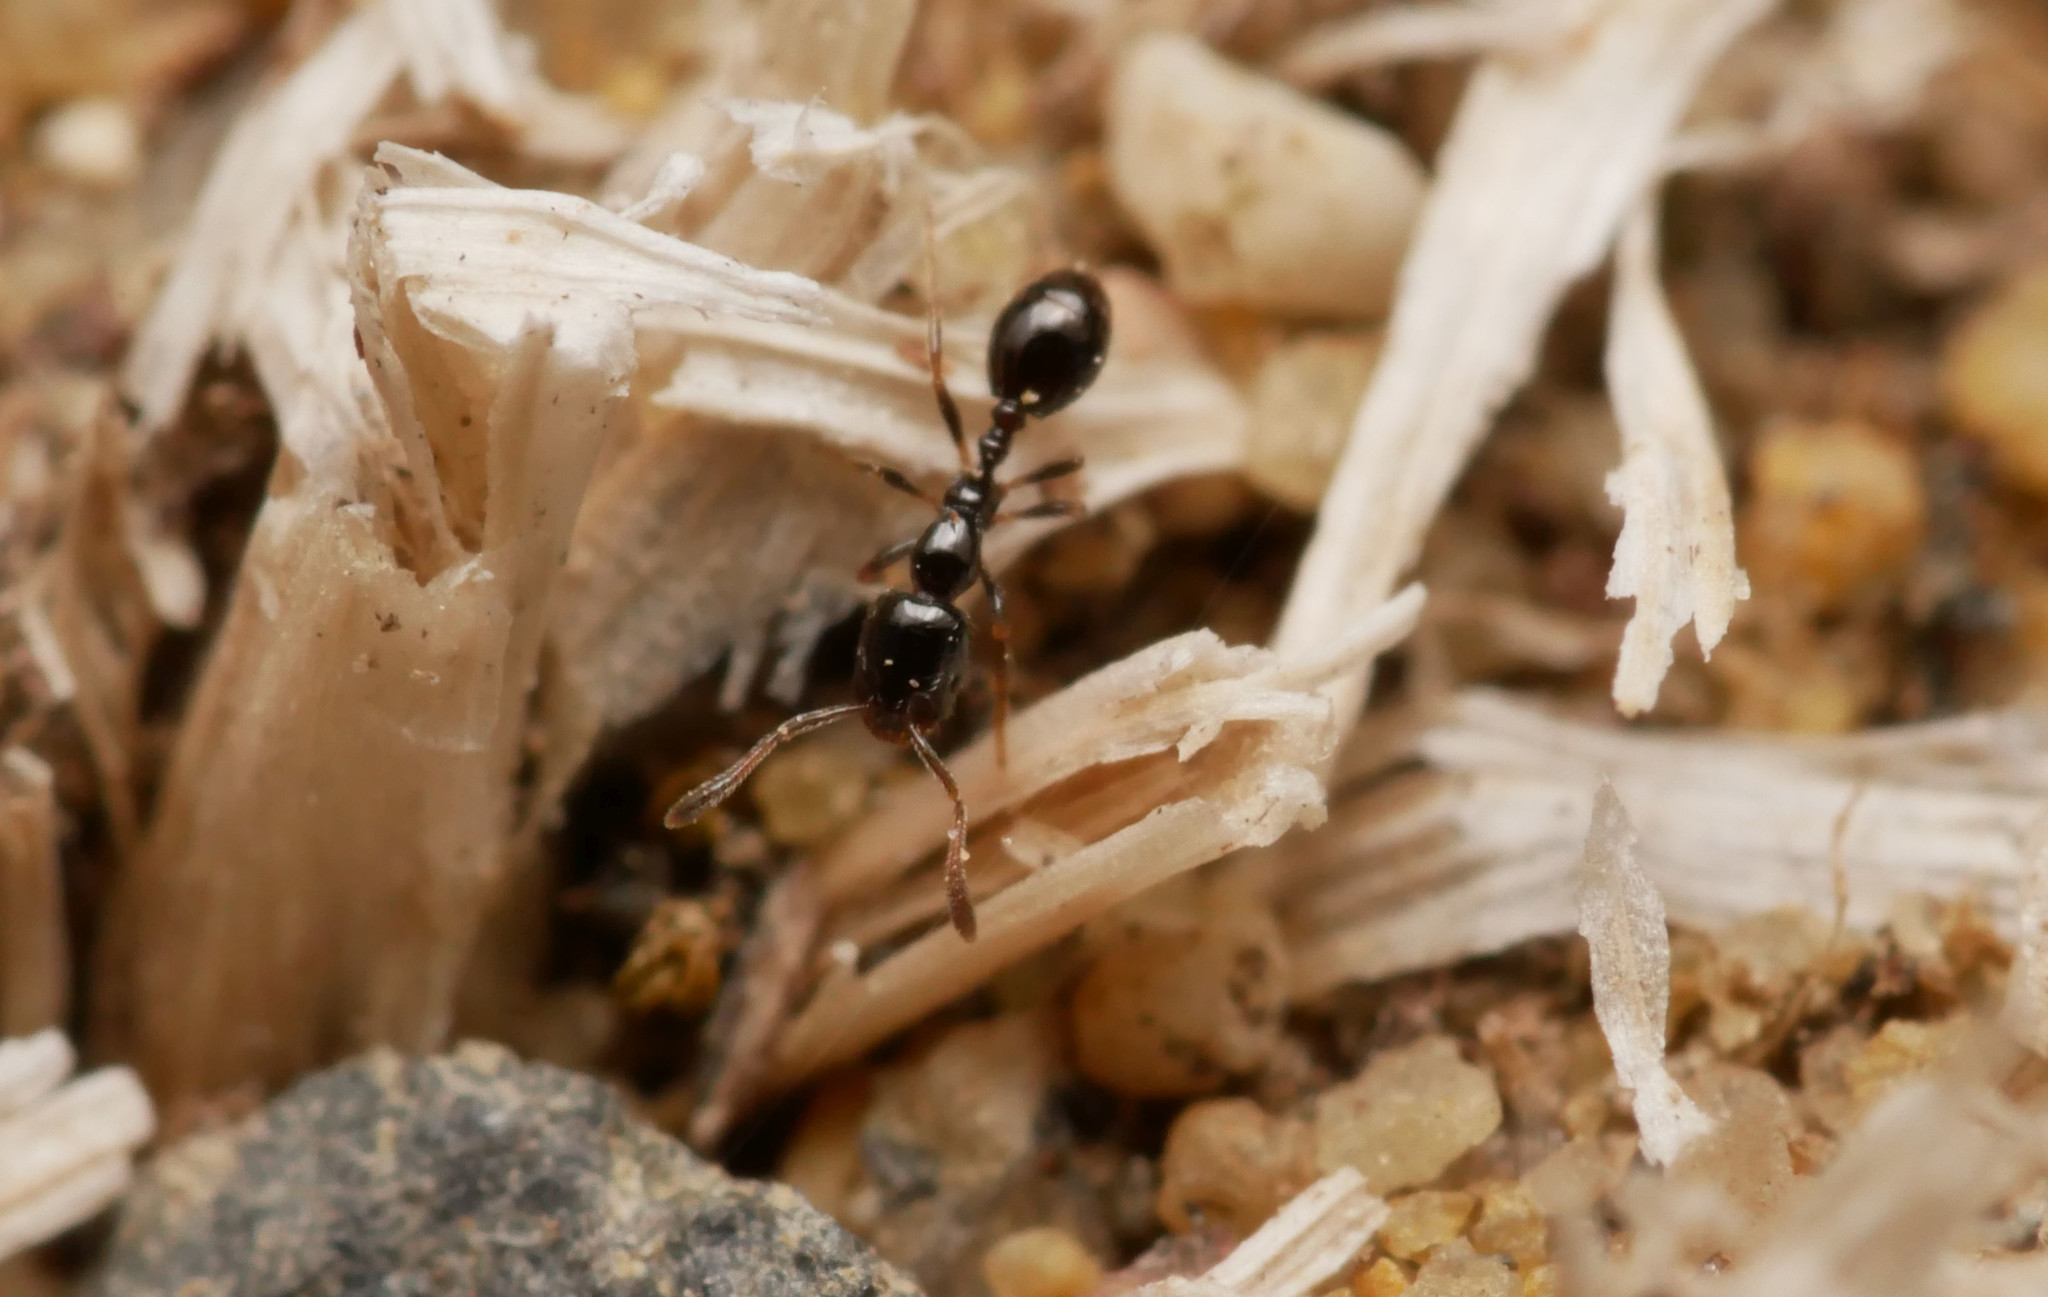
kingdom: Animalia
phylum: Arthropoda
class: Insecta
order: Hymenoptera
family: Formicidae
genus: Monomorium
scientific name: Monomorium monomorium
